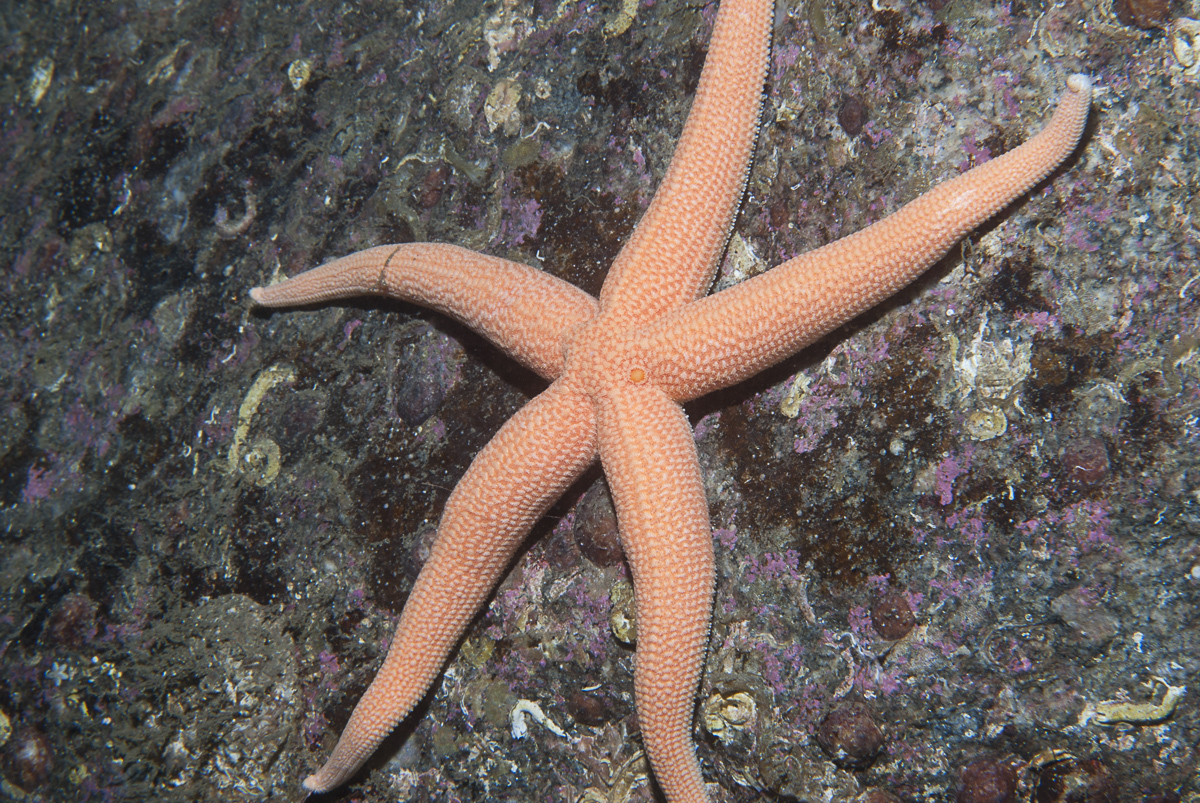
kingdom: Animalia
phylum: Echinodermata
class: Asteroidea
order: Forcipulatida
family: Stichasteridae
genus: Stichastrella
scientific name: Stichastrella rosea
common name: Rosy starfish
